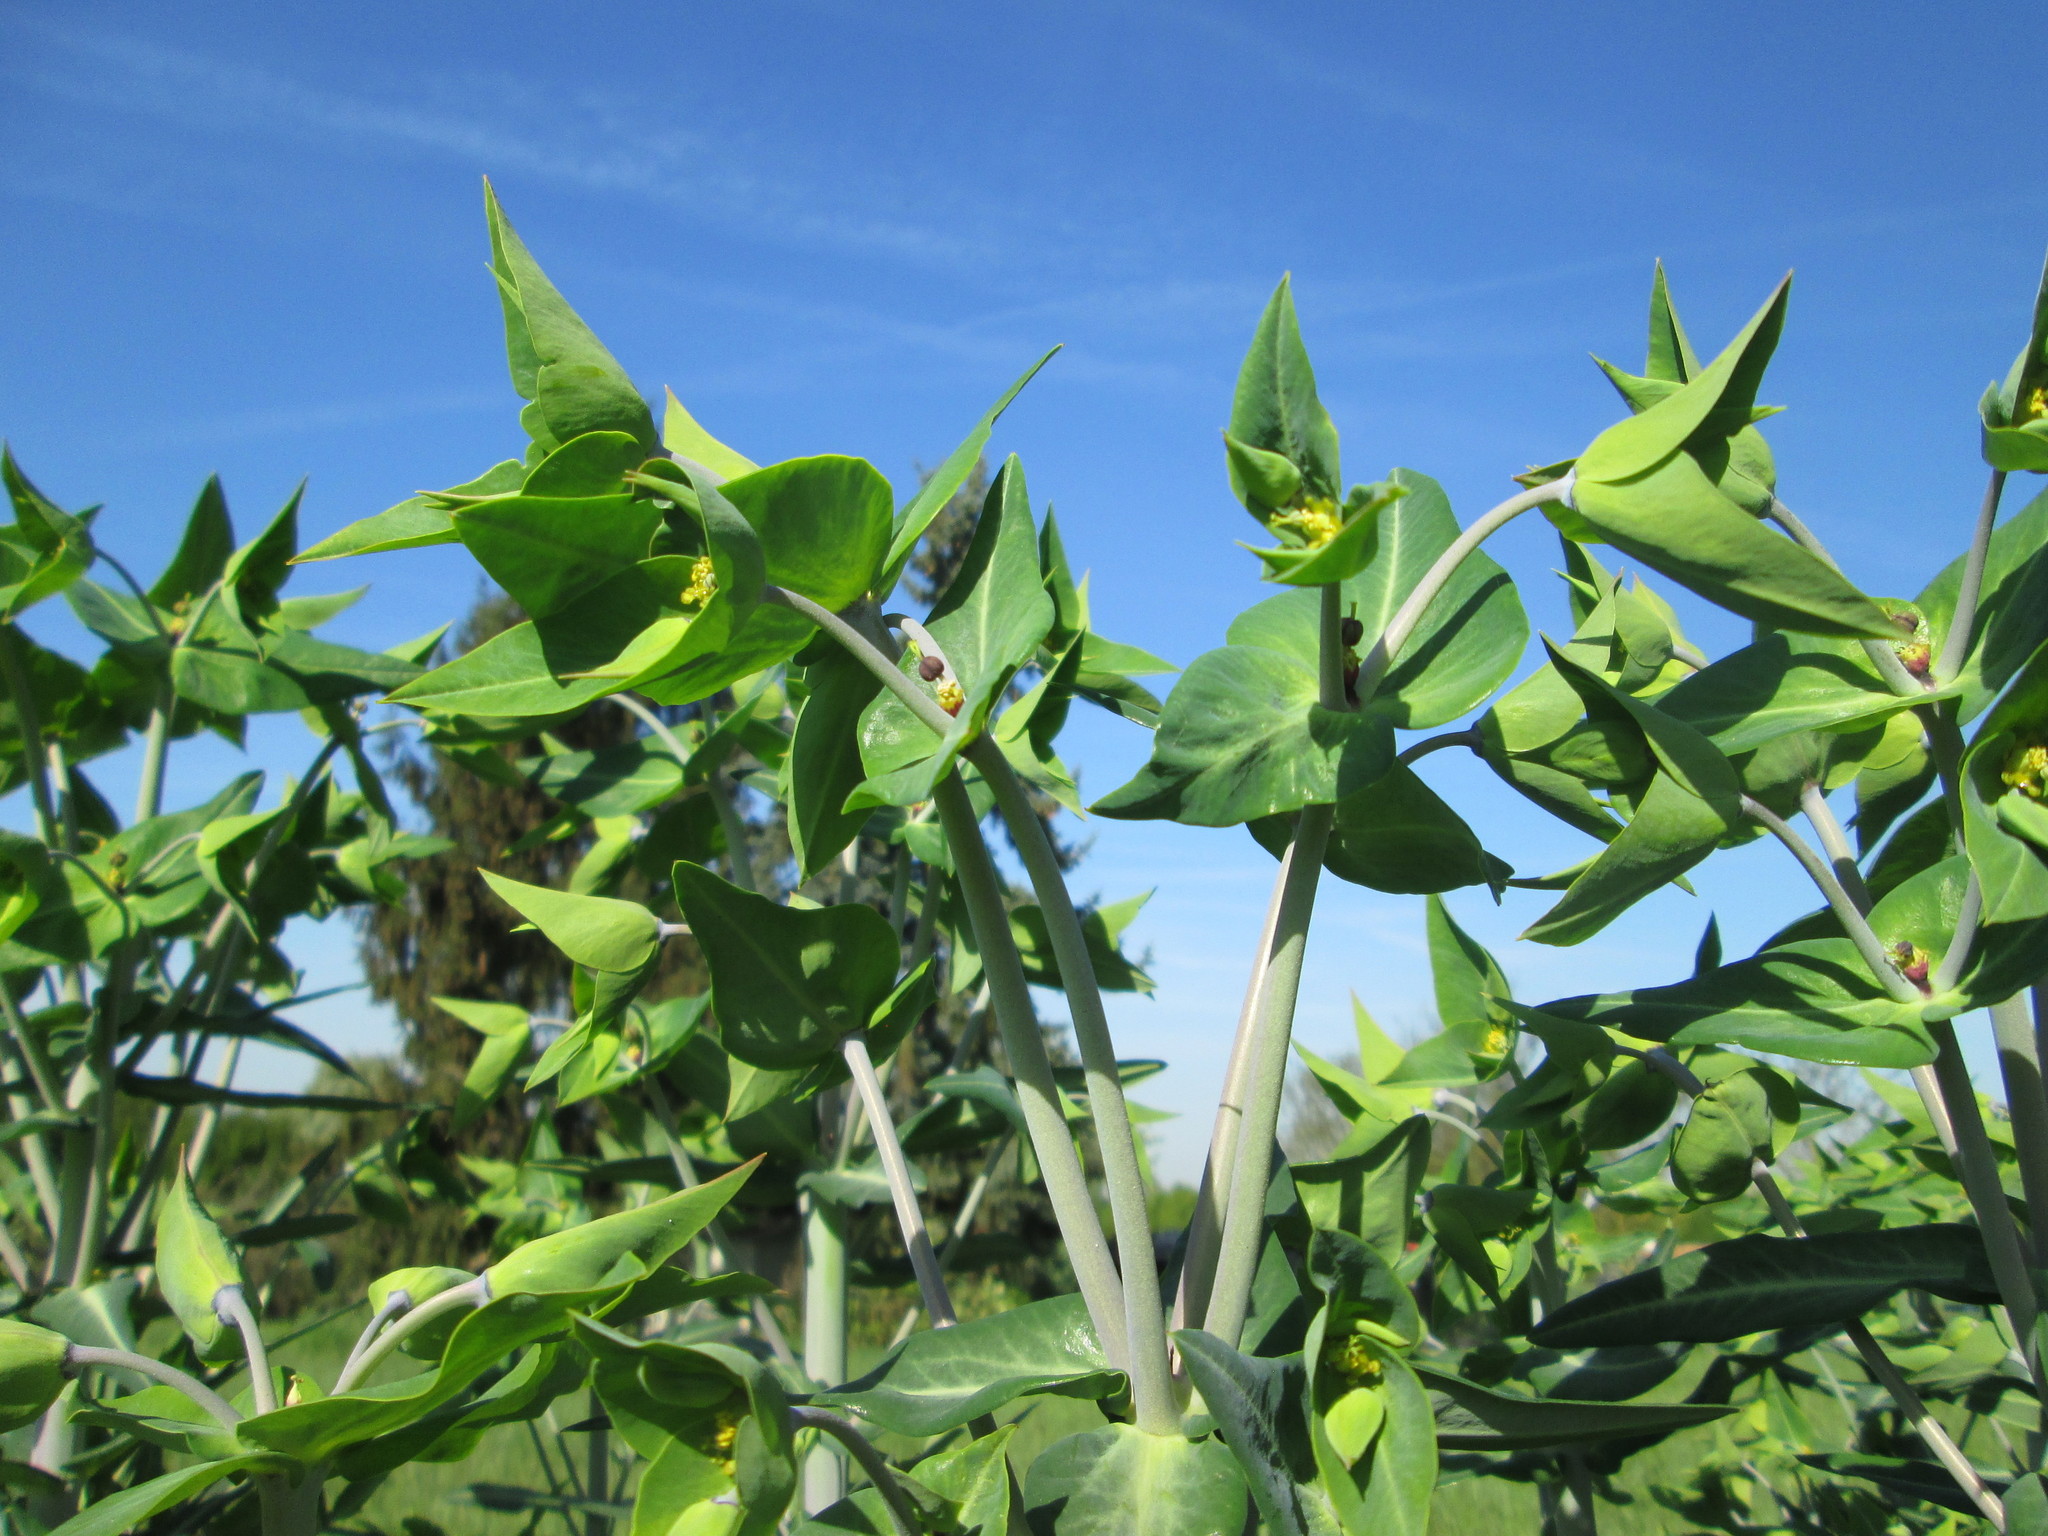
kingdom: Plantae
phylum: Tracheophyta
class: Magnoliopsida
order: Malpighiales
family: Euphorbiaceae
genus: Euphorbia
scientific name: Euphorbia lathyris
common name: Caper spurge
